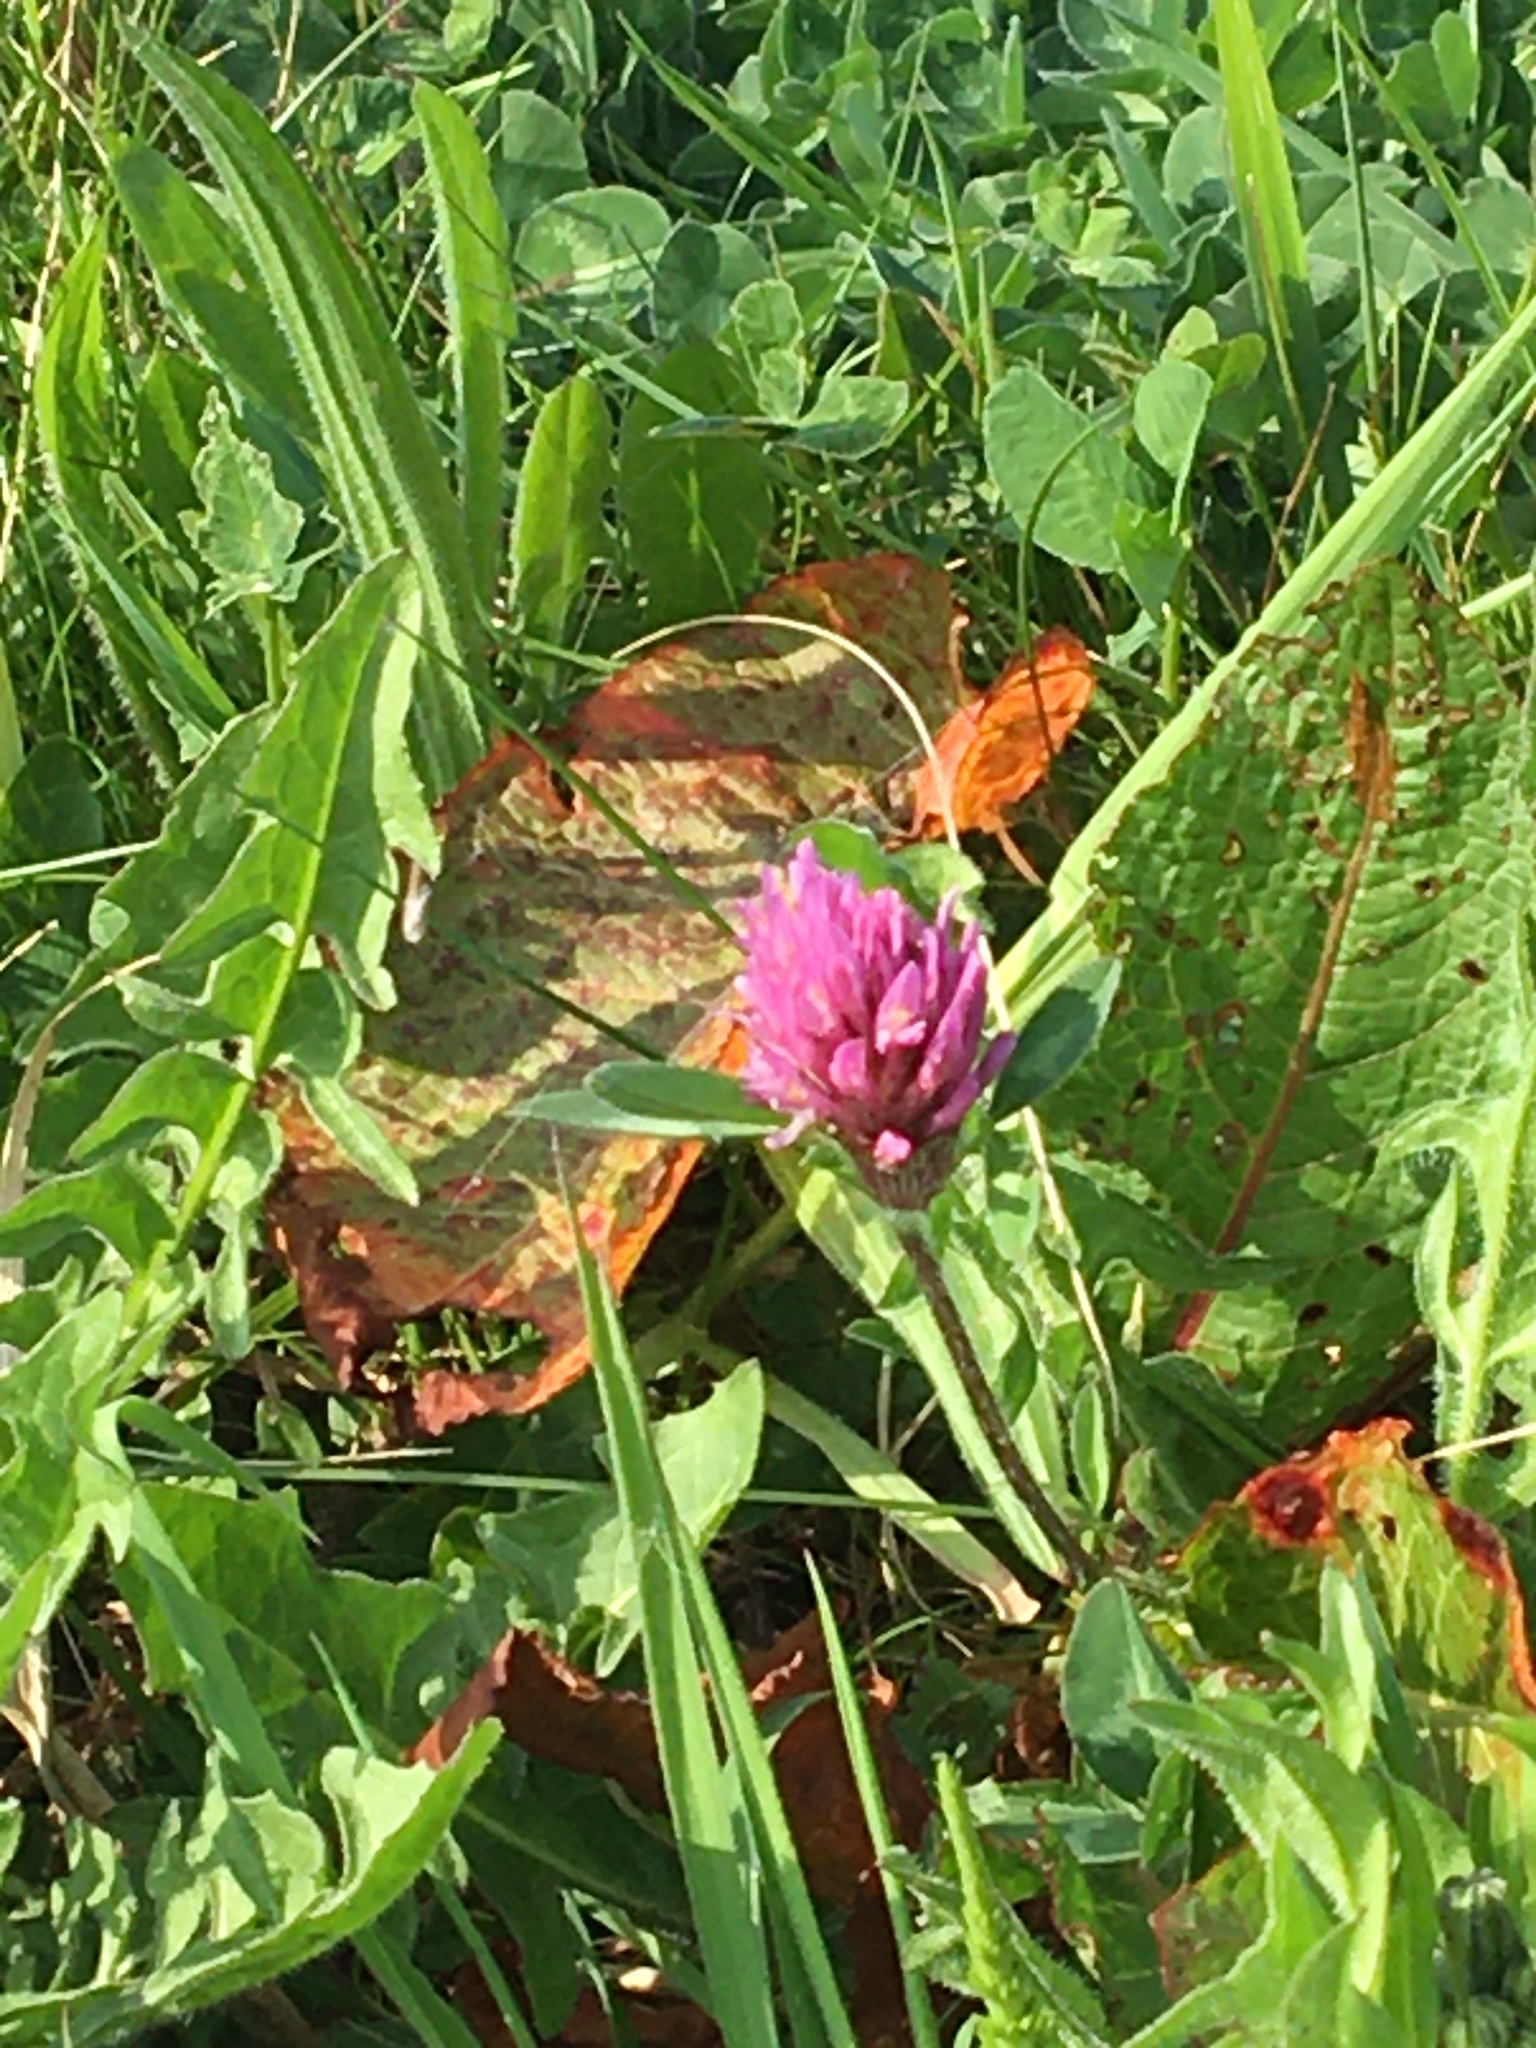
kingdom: Plantae
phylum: Tracheophyta
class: Magnoliopsida
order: Fabales
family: Fabaceae
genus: Trifolium
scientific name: Trifolium pratense
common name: Red clover
